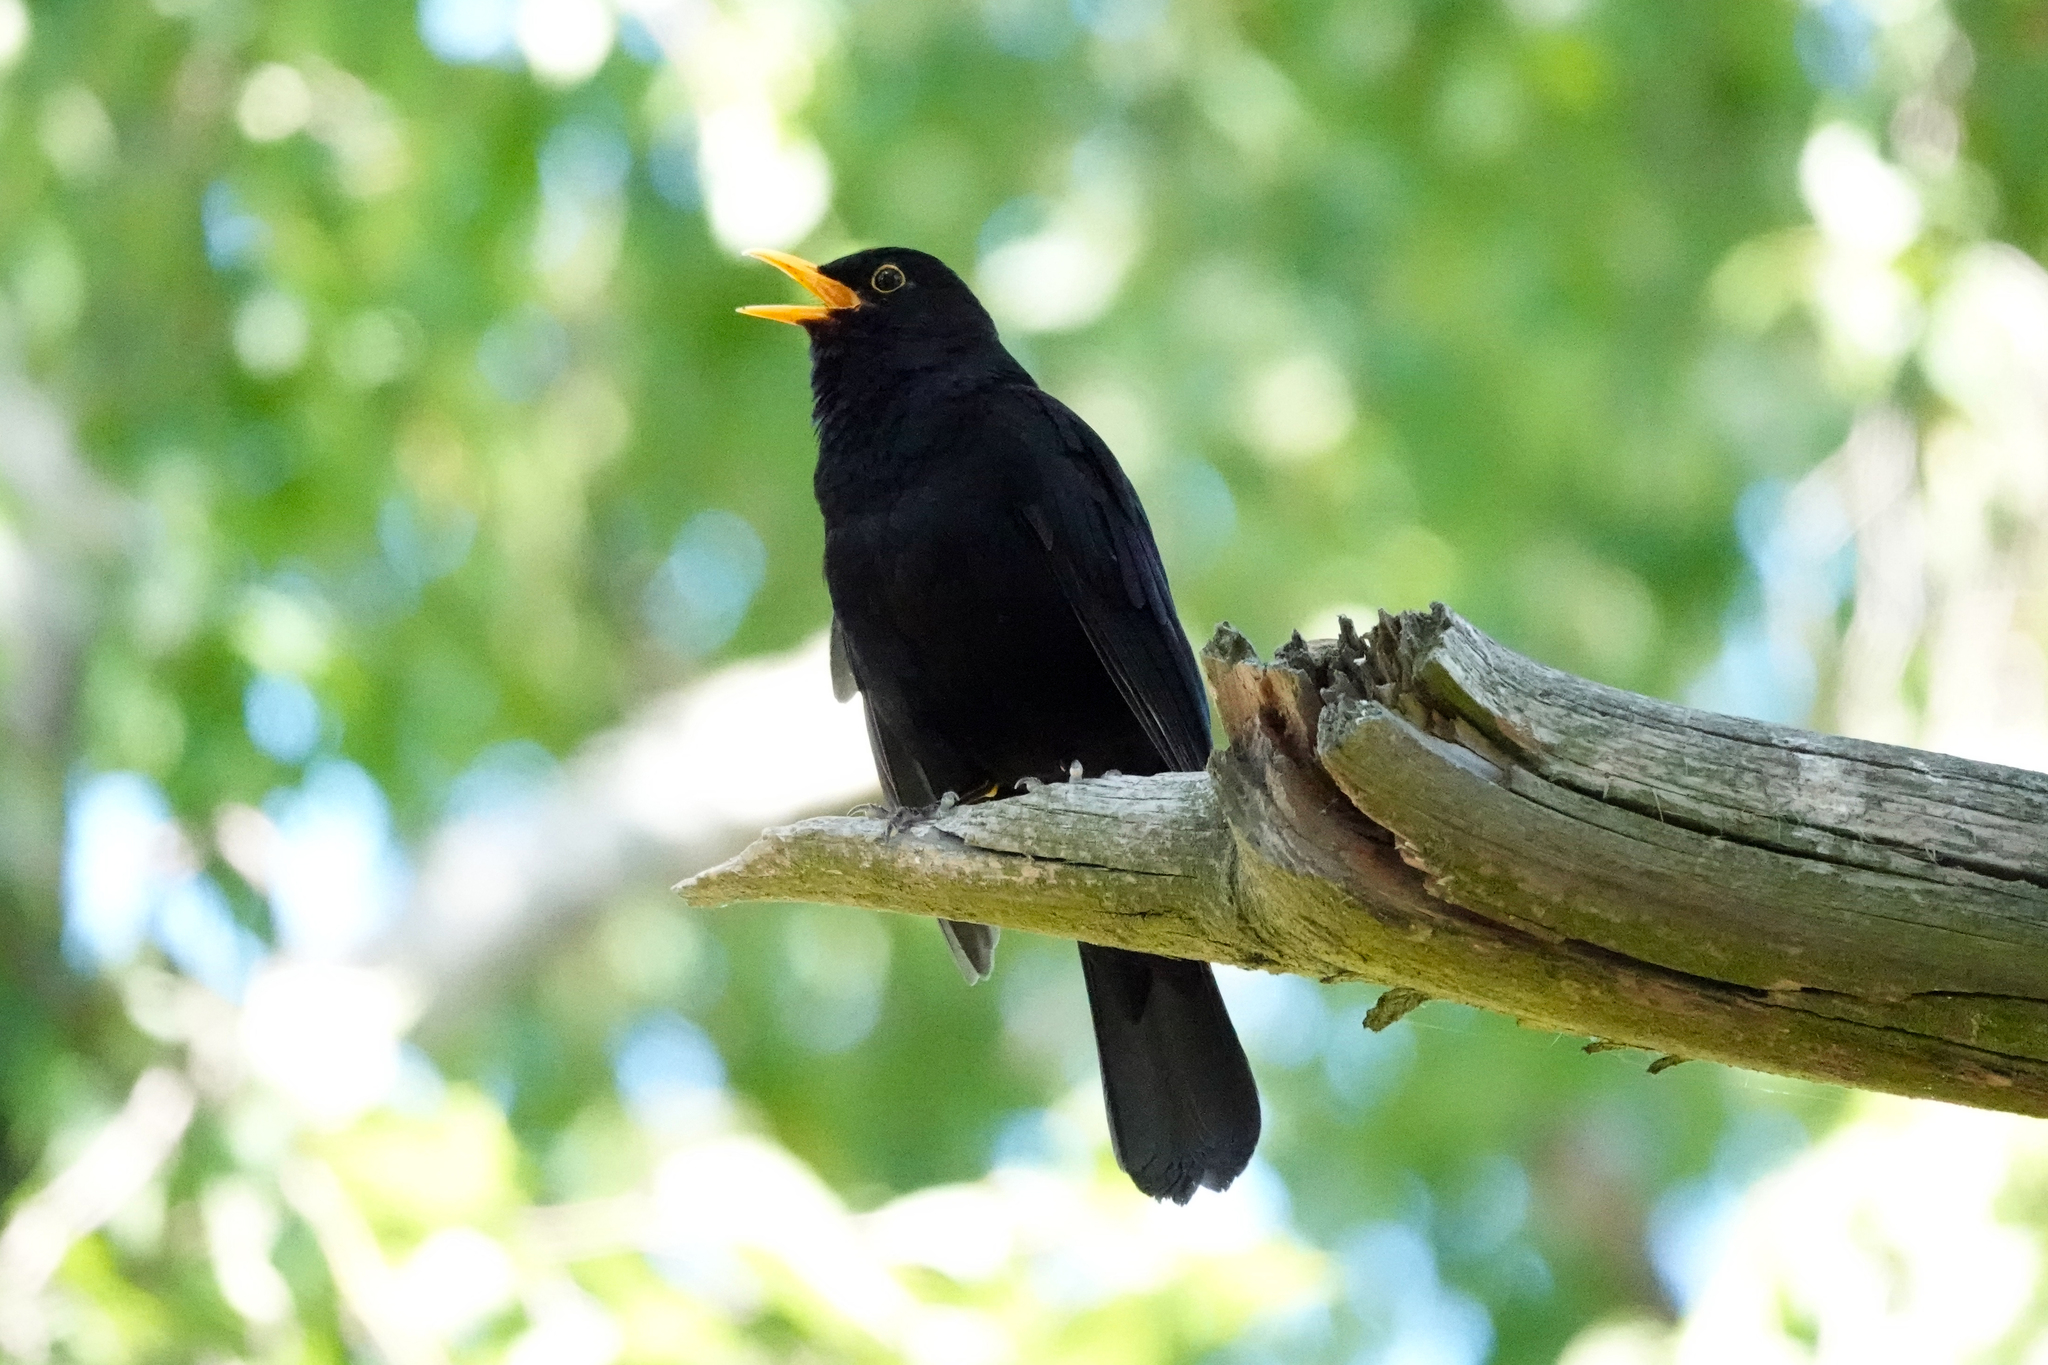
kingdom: Animalia
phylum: Chordata
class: Aves
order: Passeriformes
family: Turdidae
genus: Turdus
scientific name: Turdus merula
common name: Common blackbird
